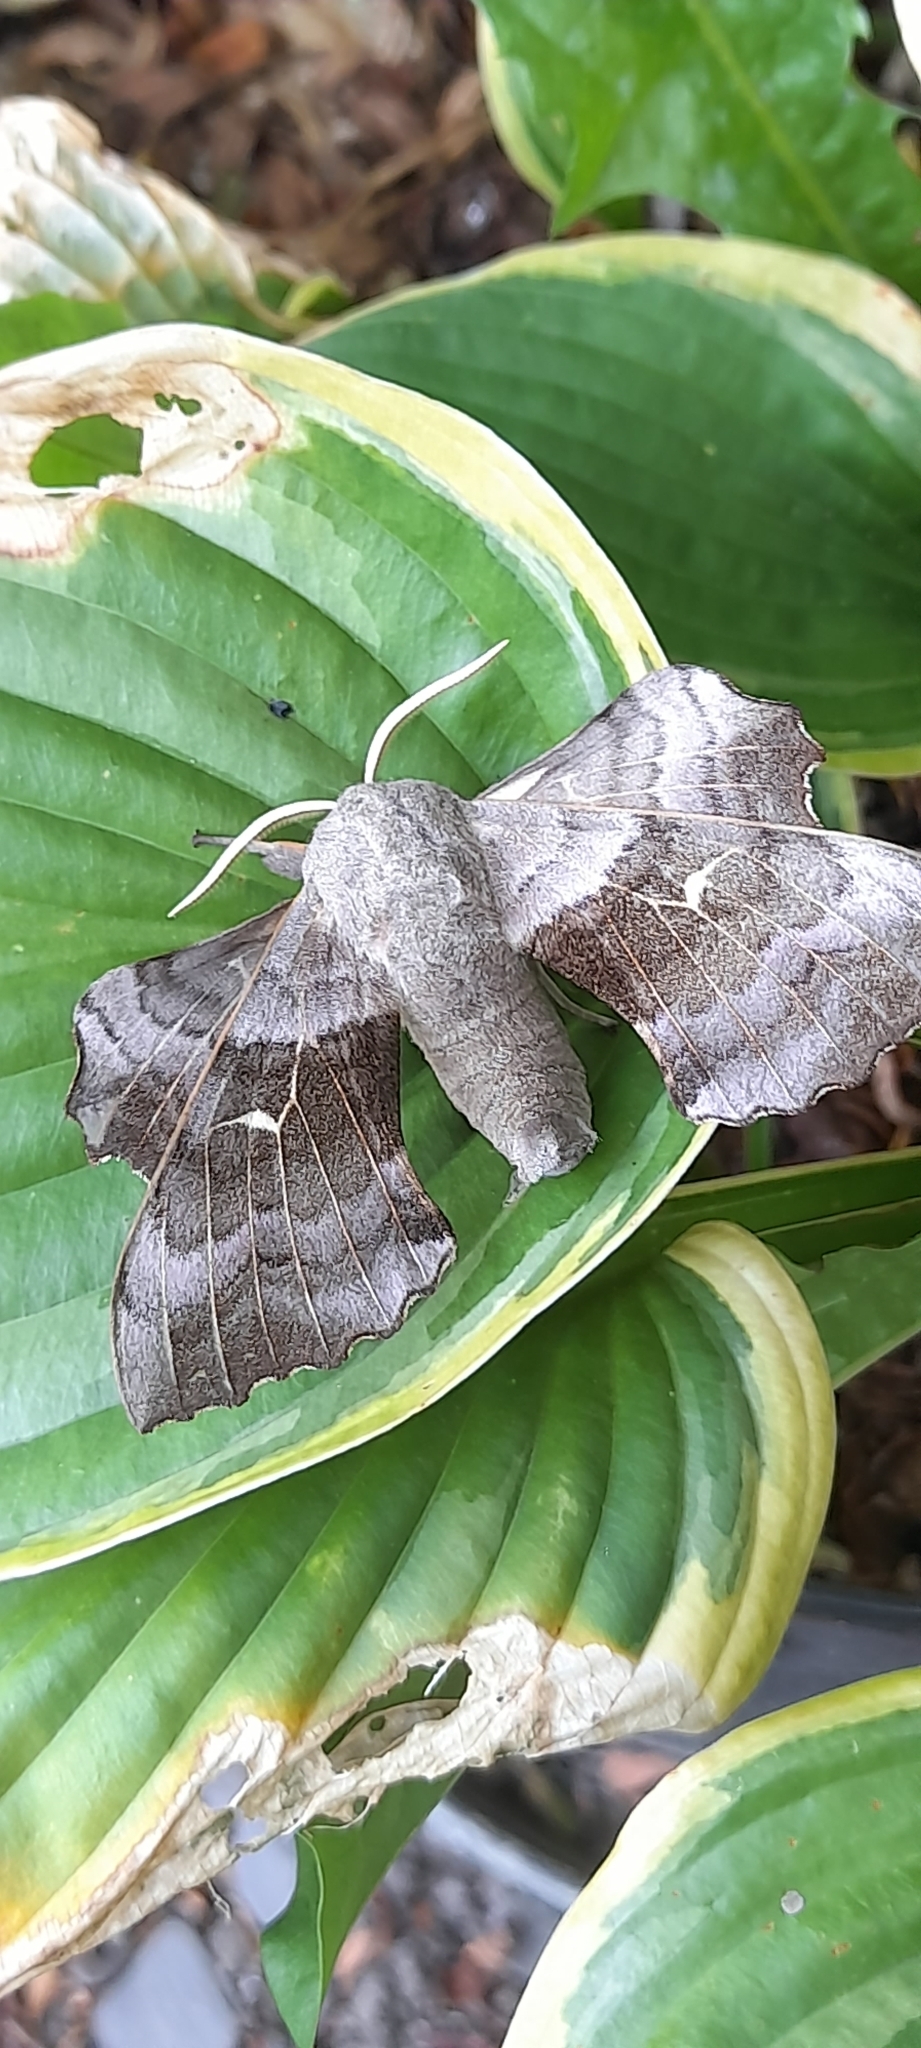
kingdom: Animalia
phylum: Arthropoda
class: Insecta
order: Lepidoptera
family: Sphingidae
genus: Laothoe
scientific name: Laothoe populi
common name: Poplar hawk-moth
